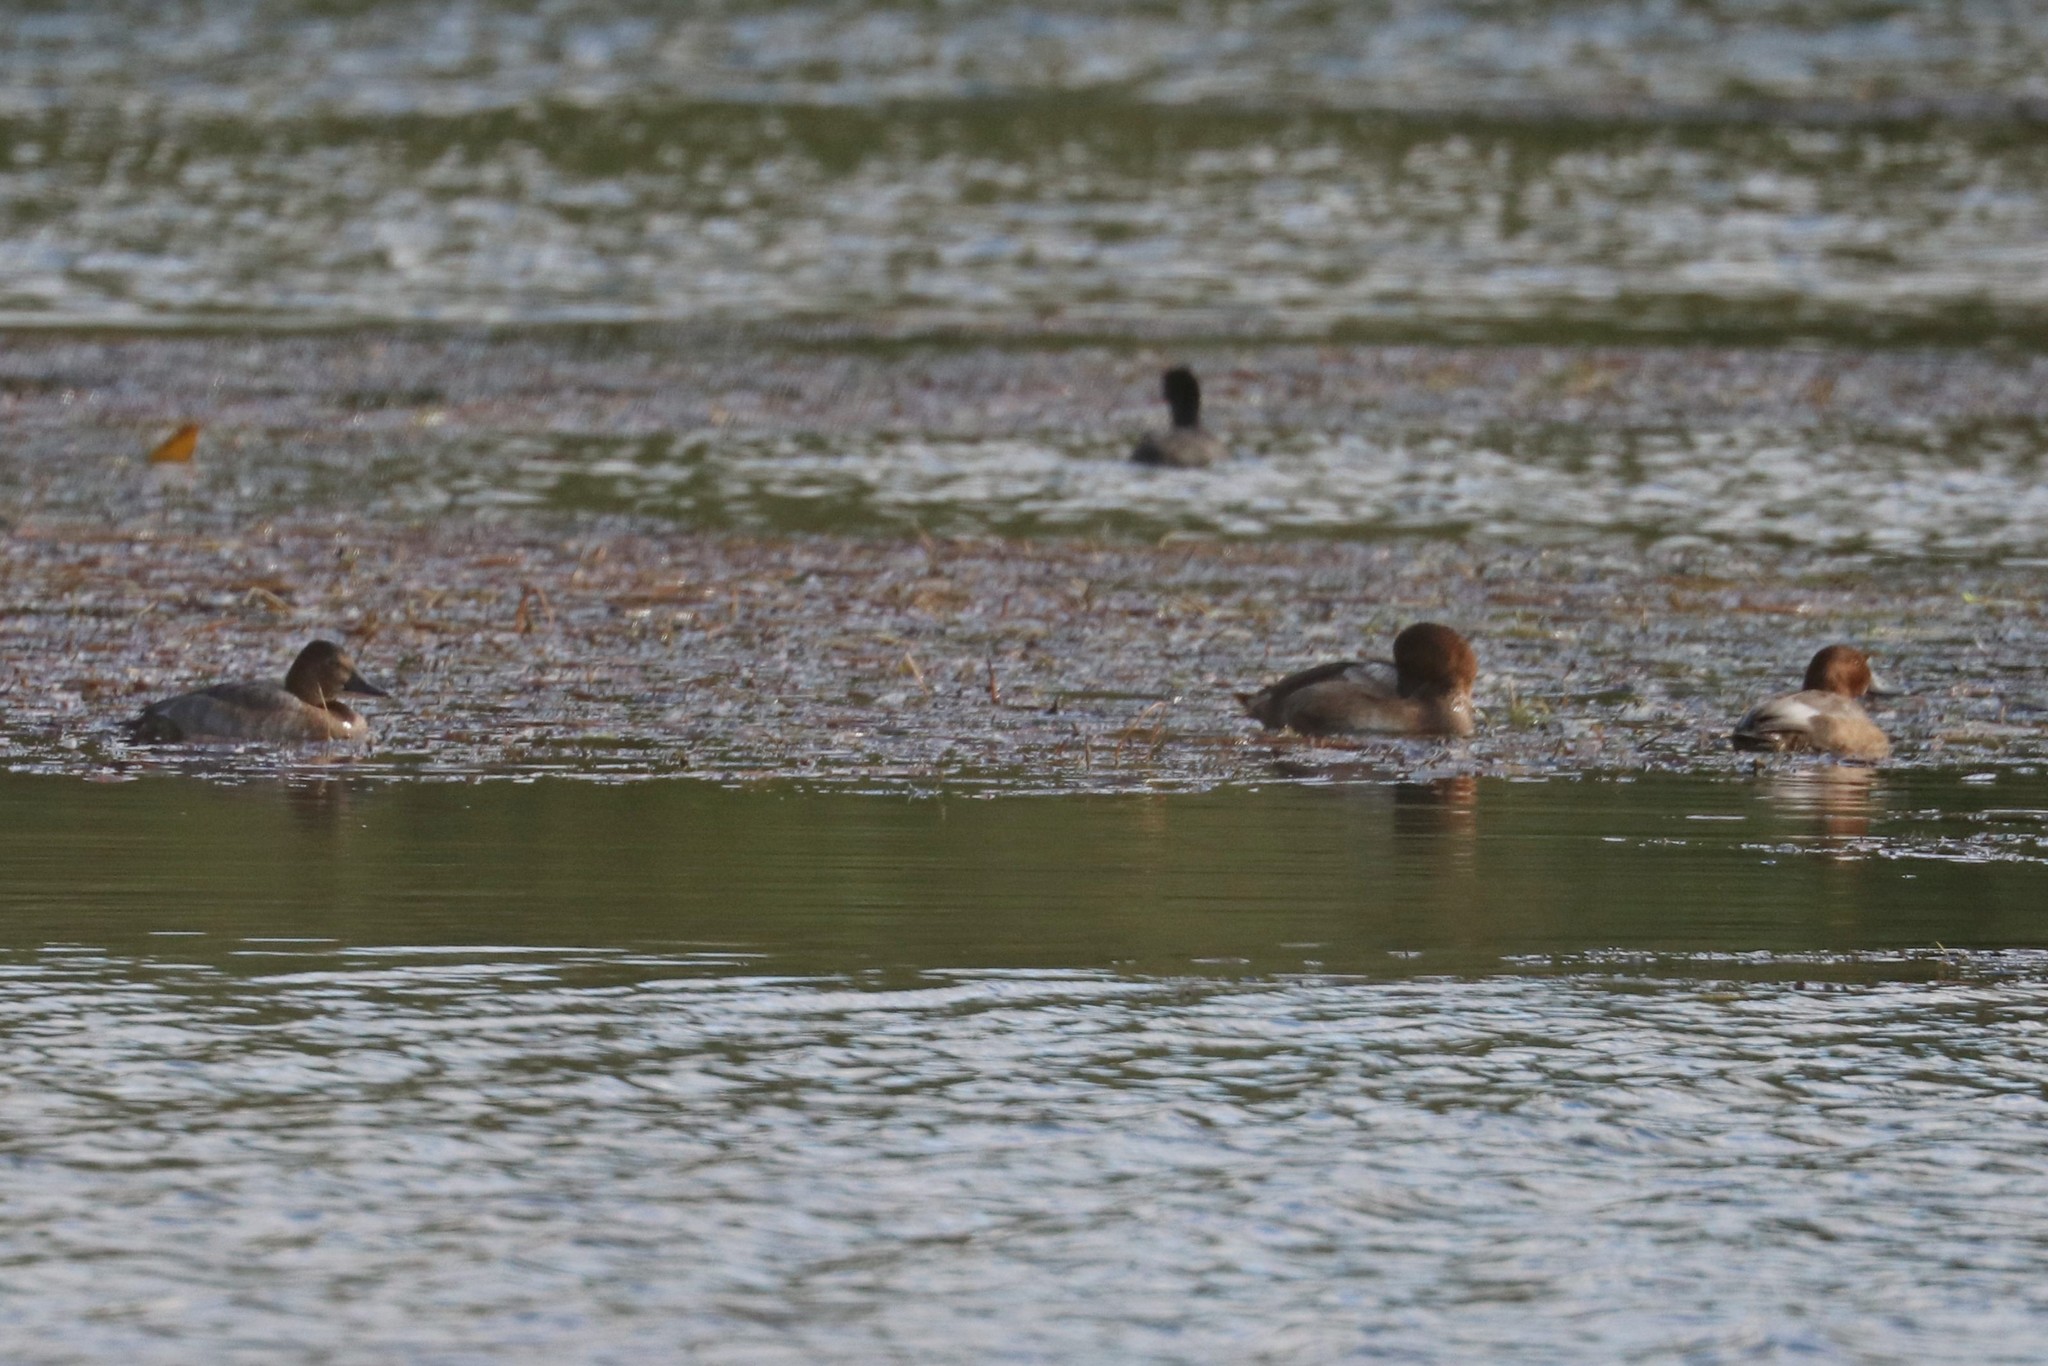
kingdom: Animalia
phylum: Chordata
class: Aves
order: Anseriformes
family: Anatidae
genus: Aythya
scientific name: Aythya ferina
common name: Common pochard
